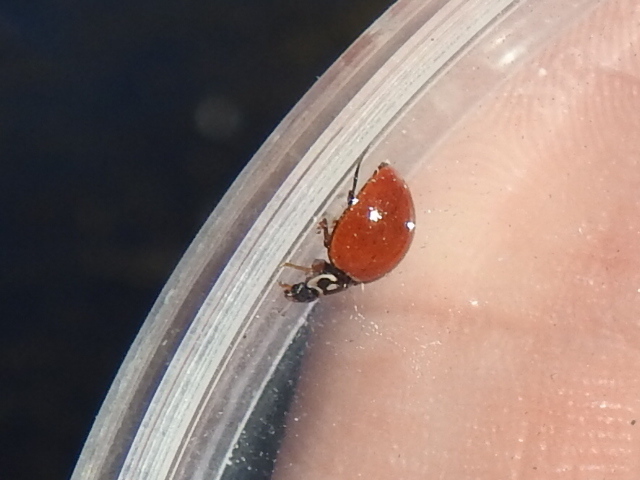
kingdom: Animalia
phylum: Arthropoda
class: Insecta
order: Coleoptera
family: Coccinellidae
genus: Cycloneda
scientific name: Cycloneda sanguinea
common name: Ladybird beetle
